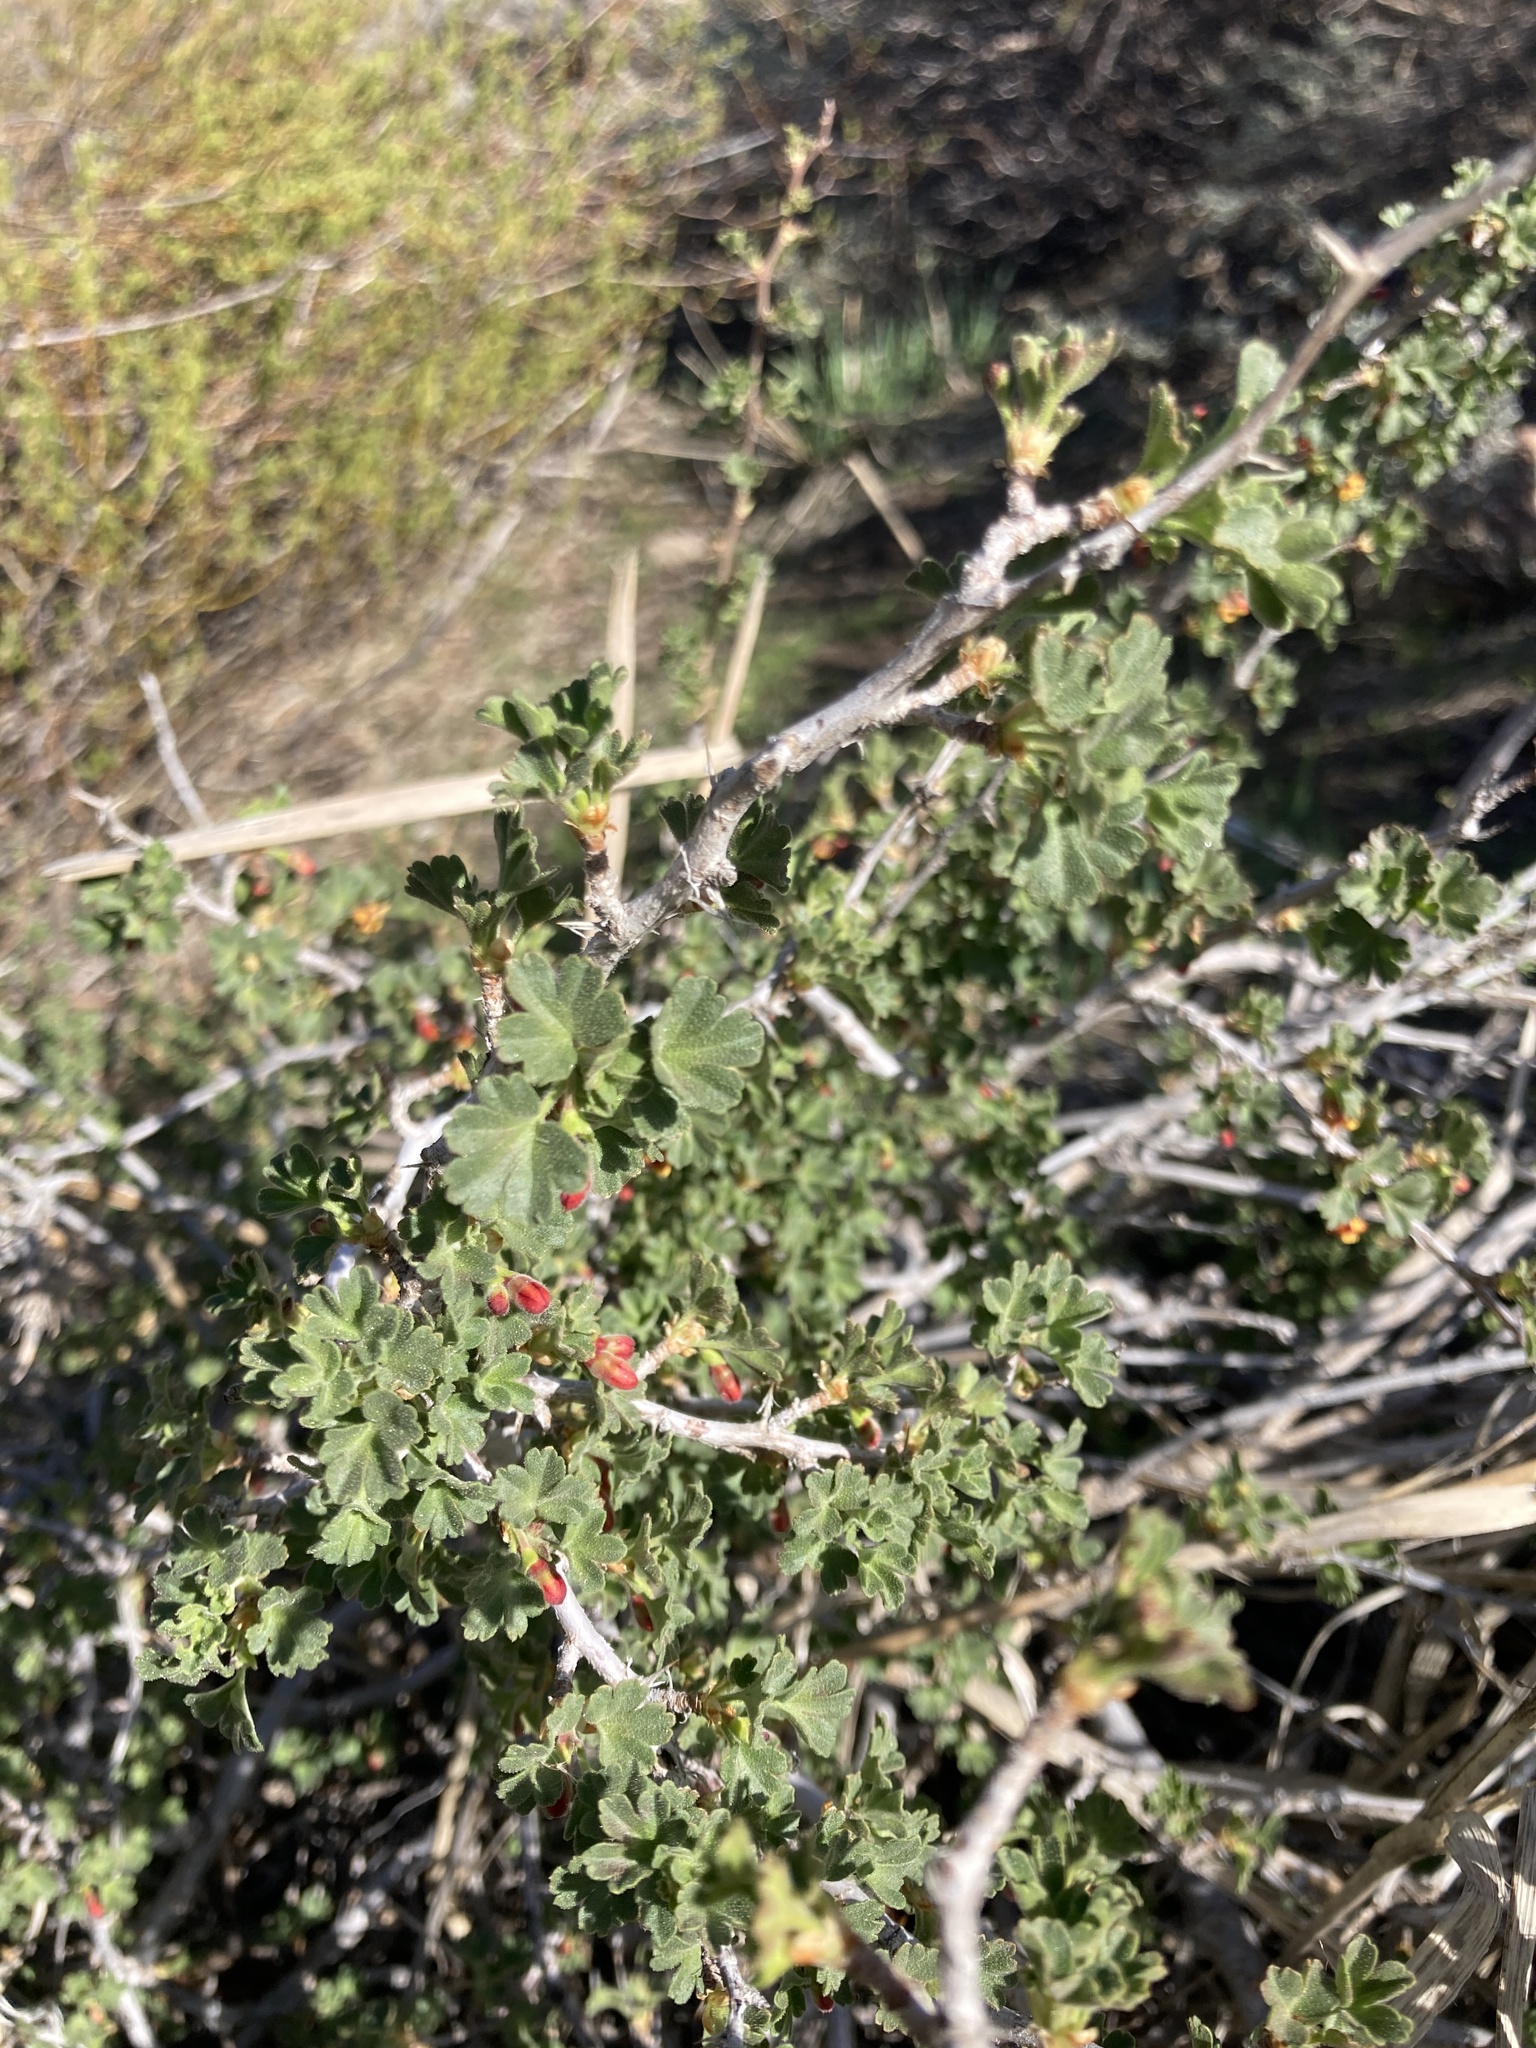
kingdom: Plantae
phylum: Tracheophyta
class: Magnoliopsida
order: Saxifragales
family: Grossulariaceae
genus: Ribes
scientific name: Ribes velutinum
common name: Desert gooseberry
